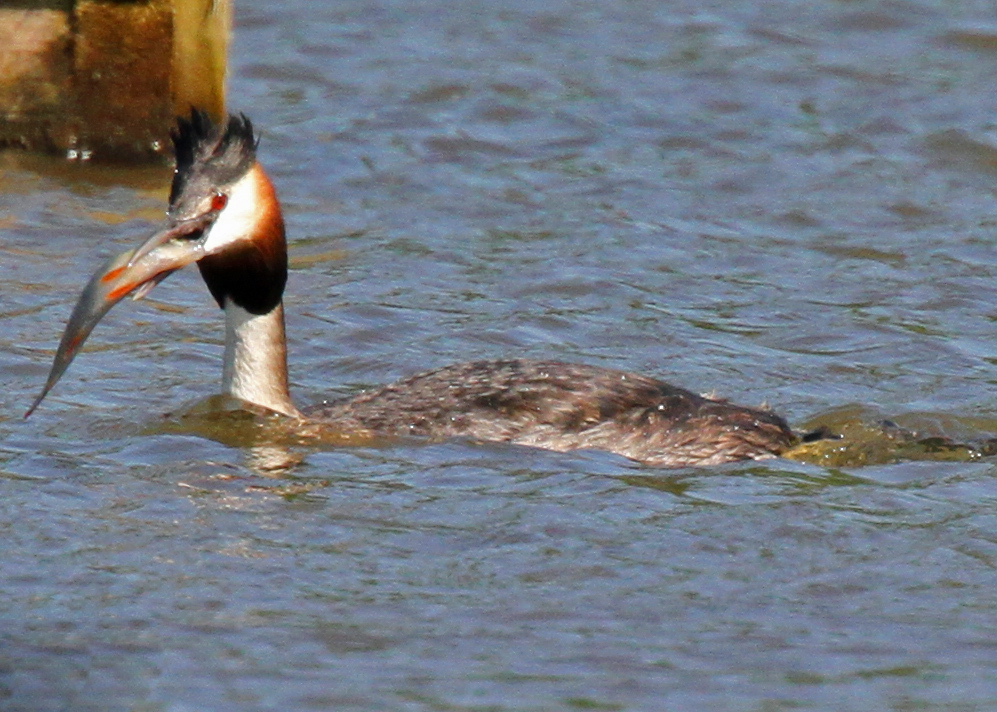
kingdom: Animalia
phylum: Chordata
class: Aves
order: Podicipediformes
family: Podicipedidae
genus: Podiceps
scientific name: Podiceps cristatus
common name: Great crested grebe
